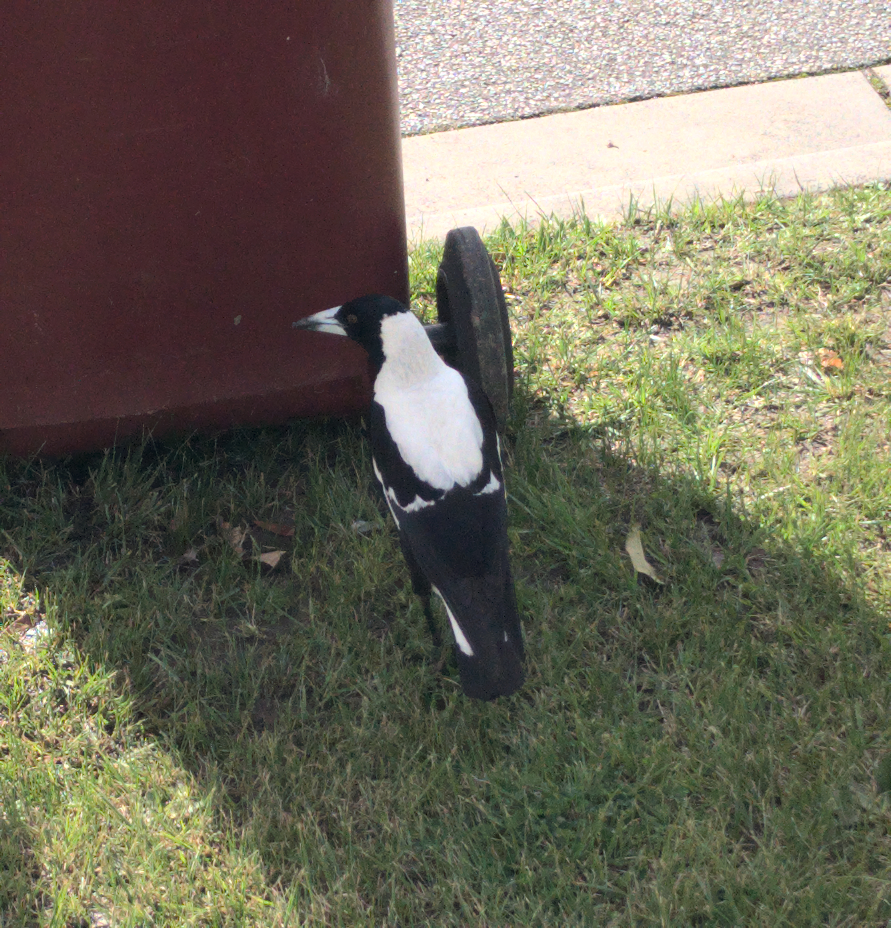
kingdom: Animalia
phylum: Chordata
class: Aves
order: Passeriformes
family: Cracticidae
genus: Gymnorhina
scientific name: Gymnorhina tibicen
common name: Australian magpie
